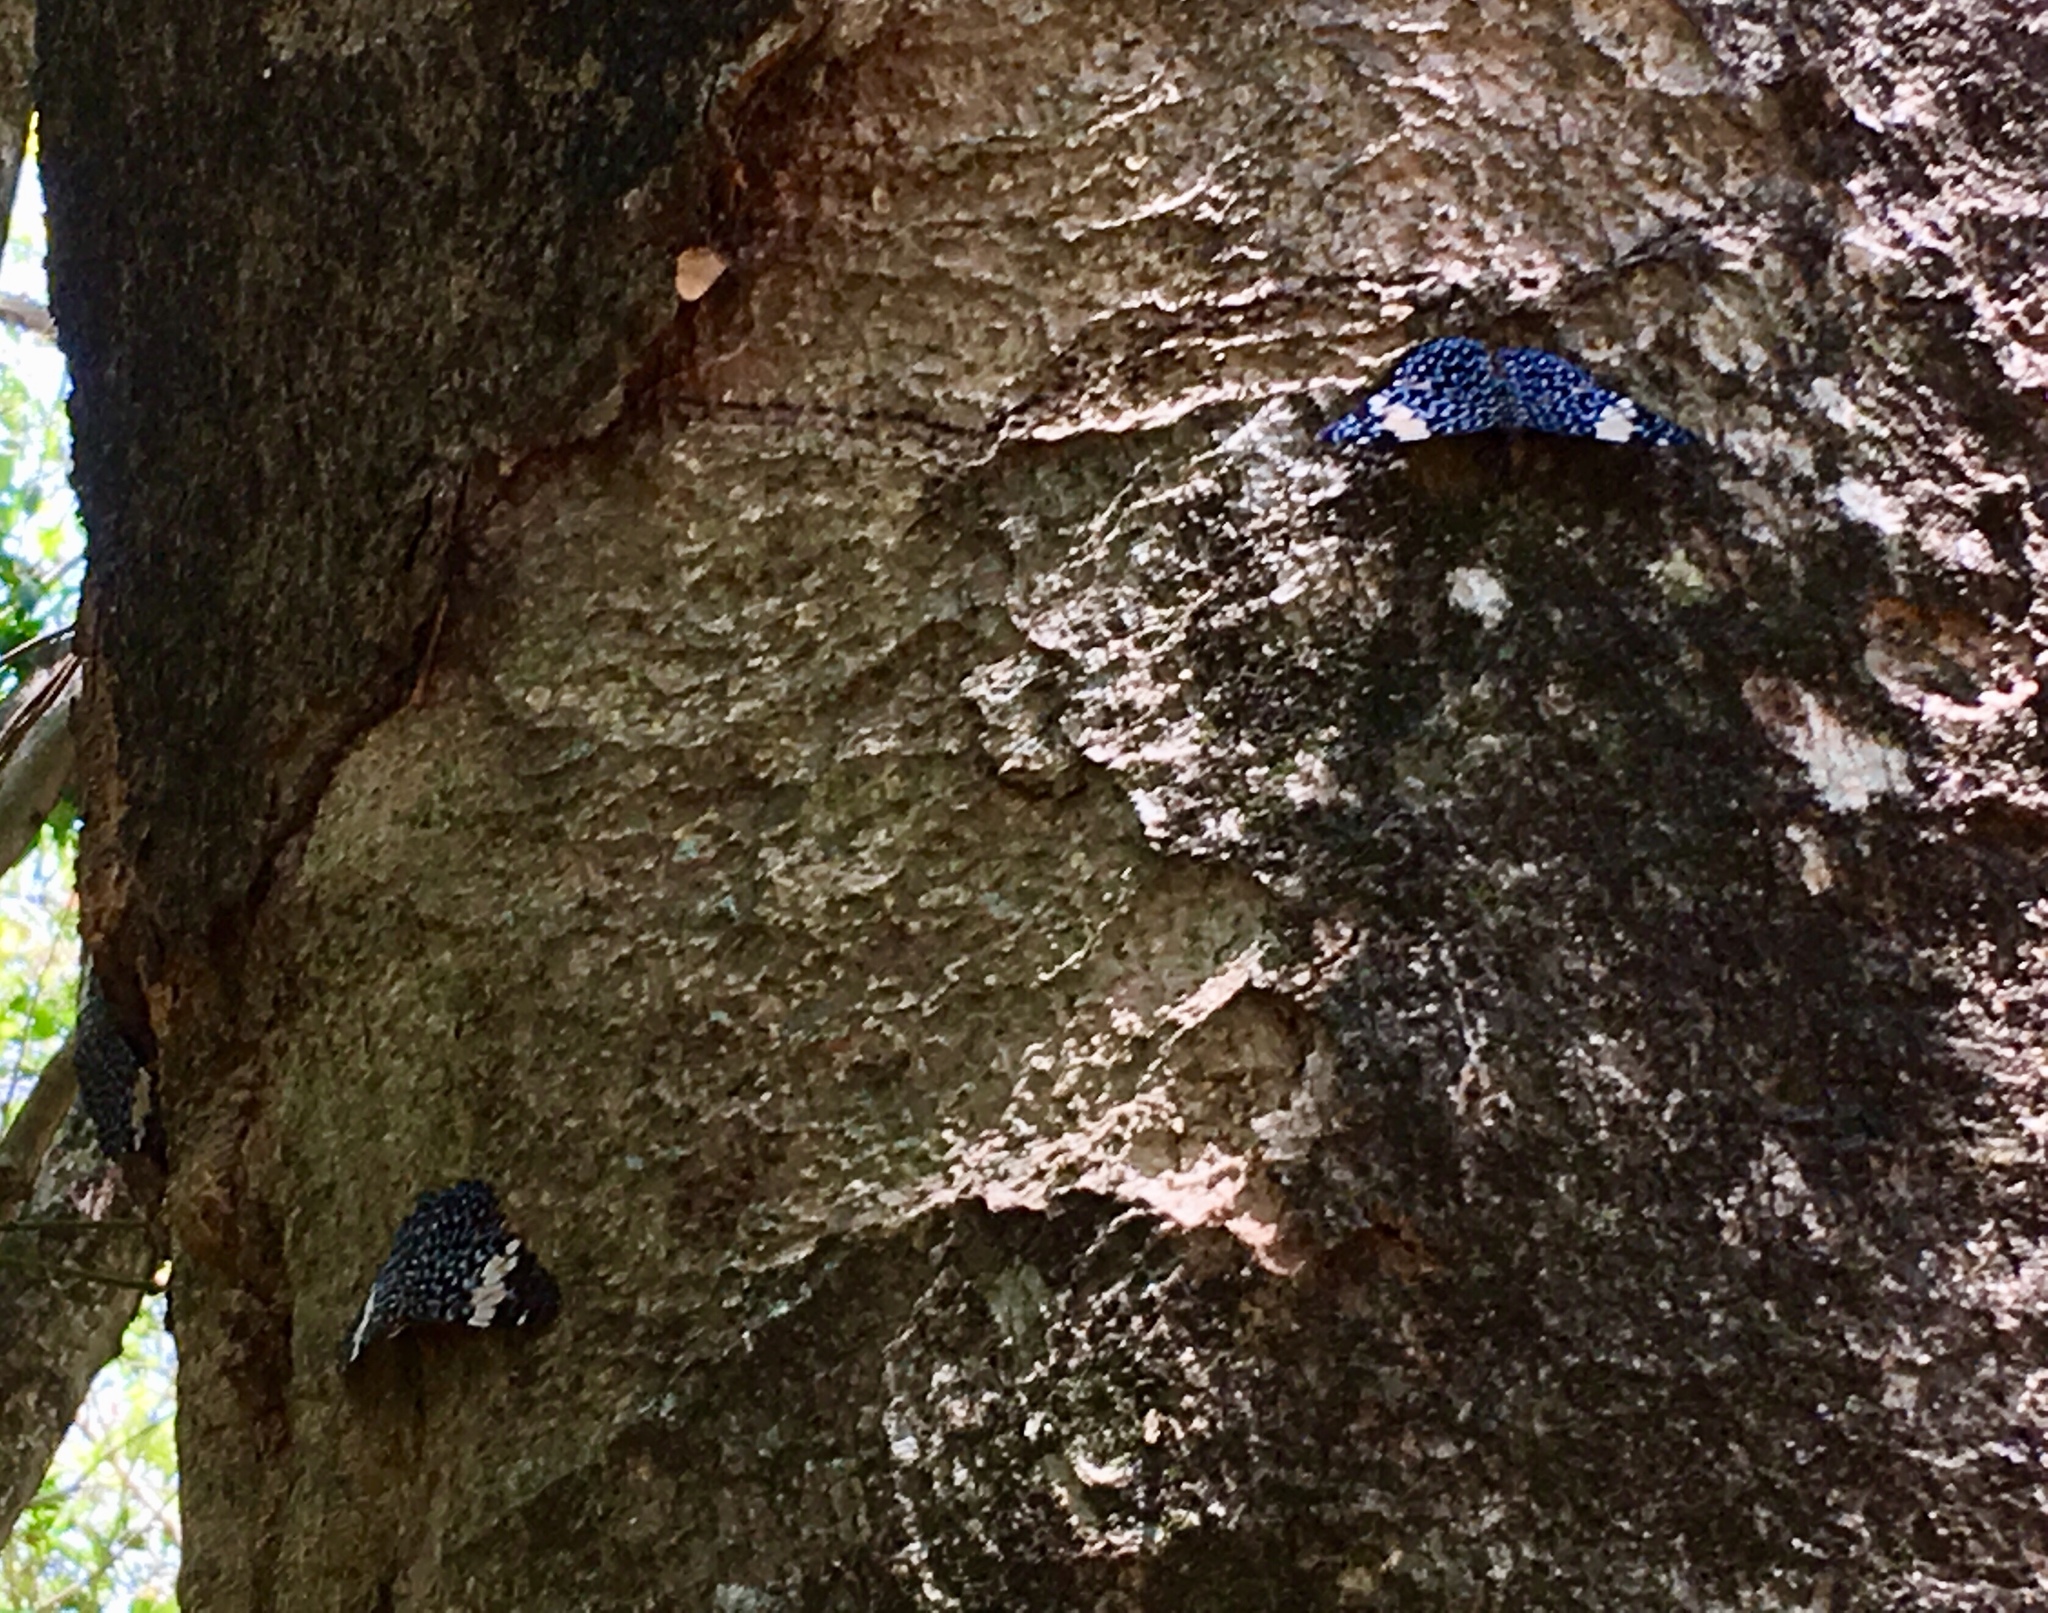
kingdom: Animalia
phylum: Arthropoda
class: Insecta
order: Lepidoptera
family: Nymphalidae
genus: Hamadryas
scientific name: Hamadryas amphinome
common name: Red cracker
